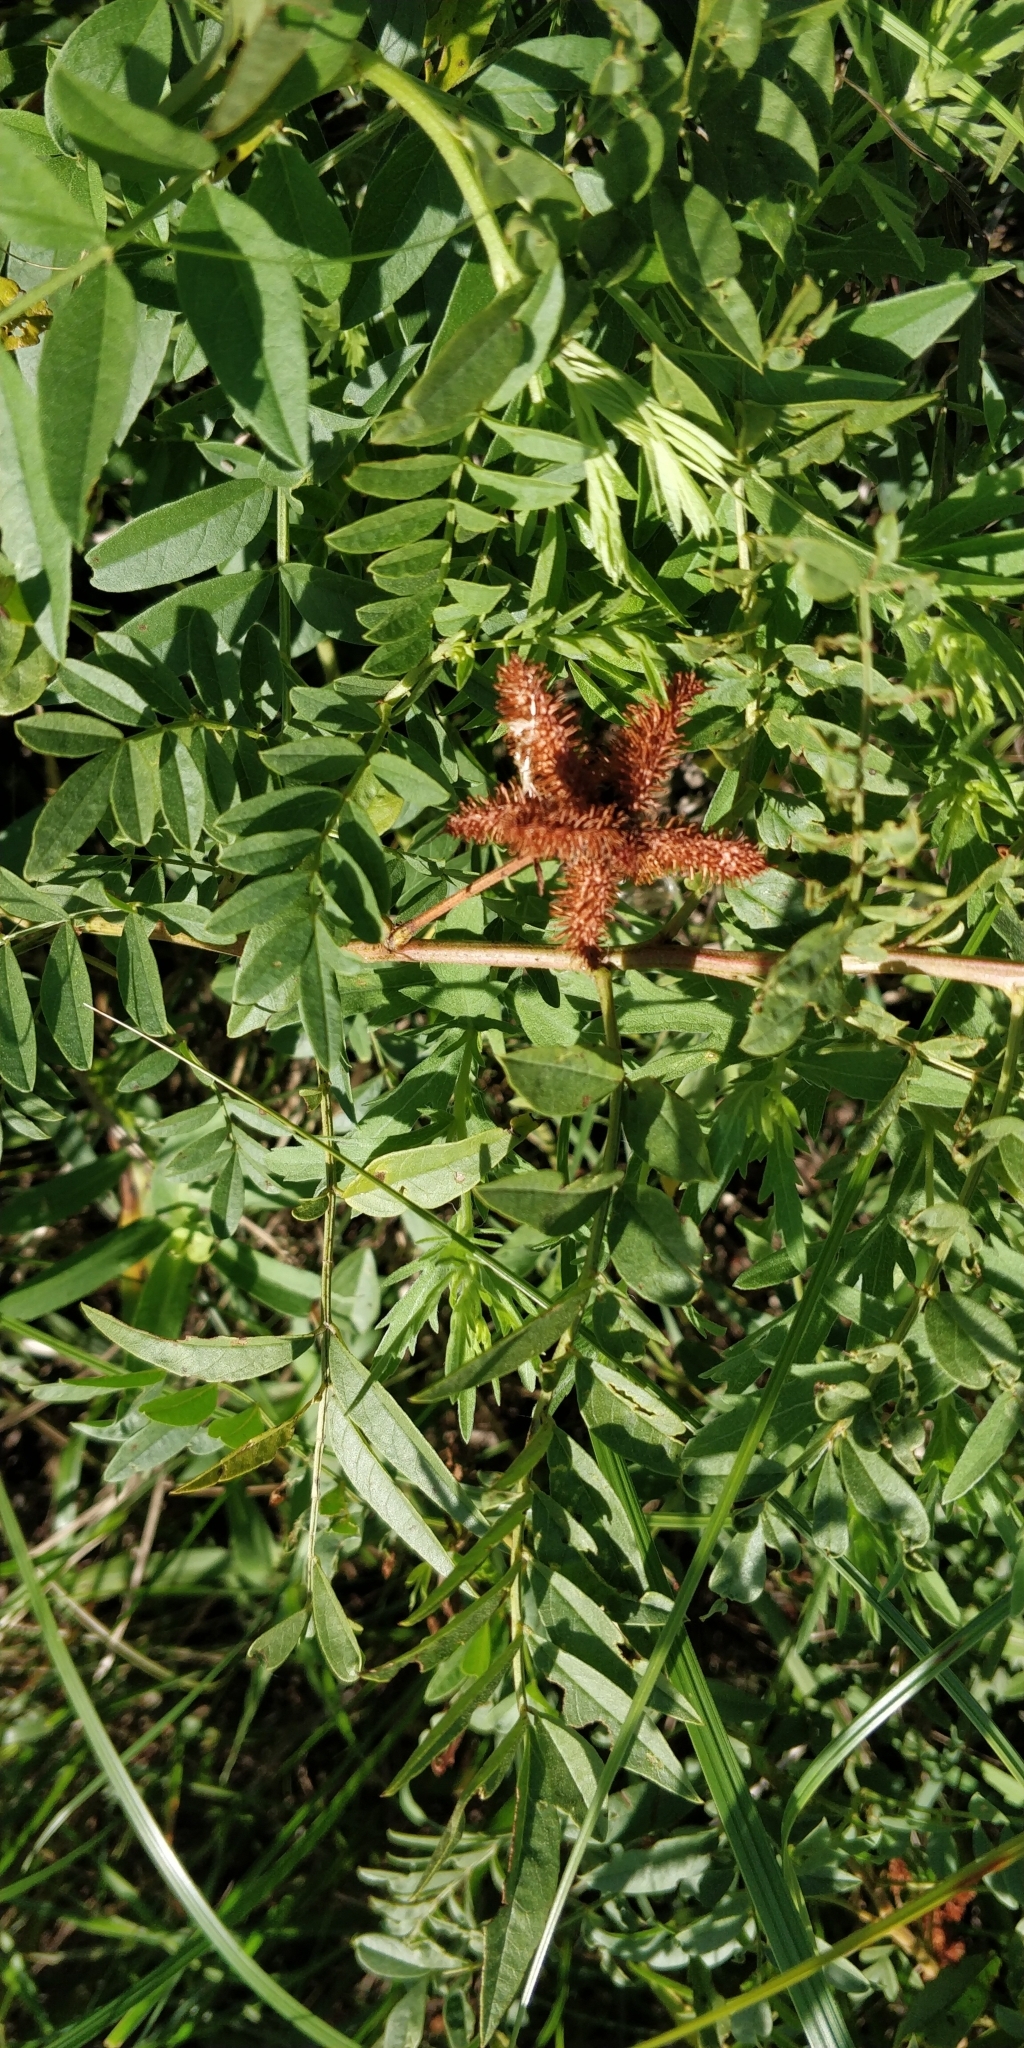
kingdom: Plantae
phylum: Tracheophyta
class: Magnoliopsida
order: Fabales
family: Fabaceae
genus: Glycyrrhiza
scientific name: Glycyrrhiza lepidota
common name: American liquorice
